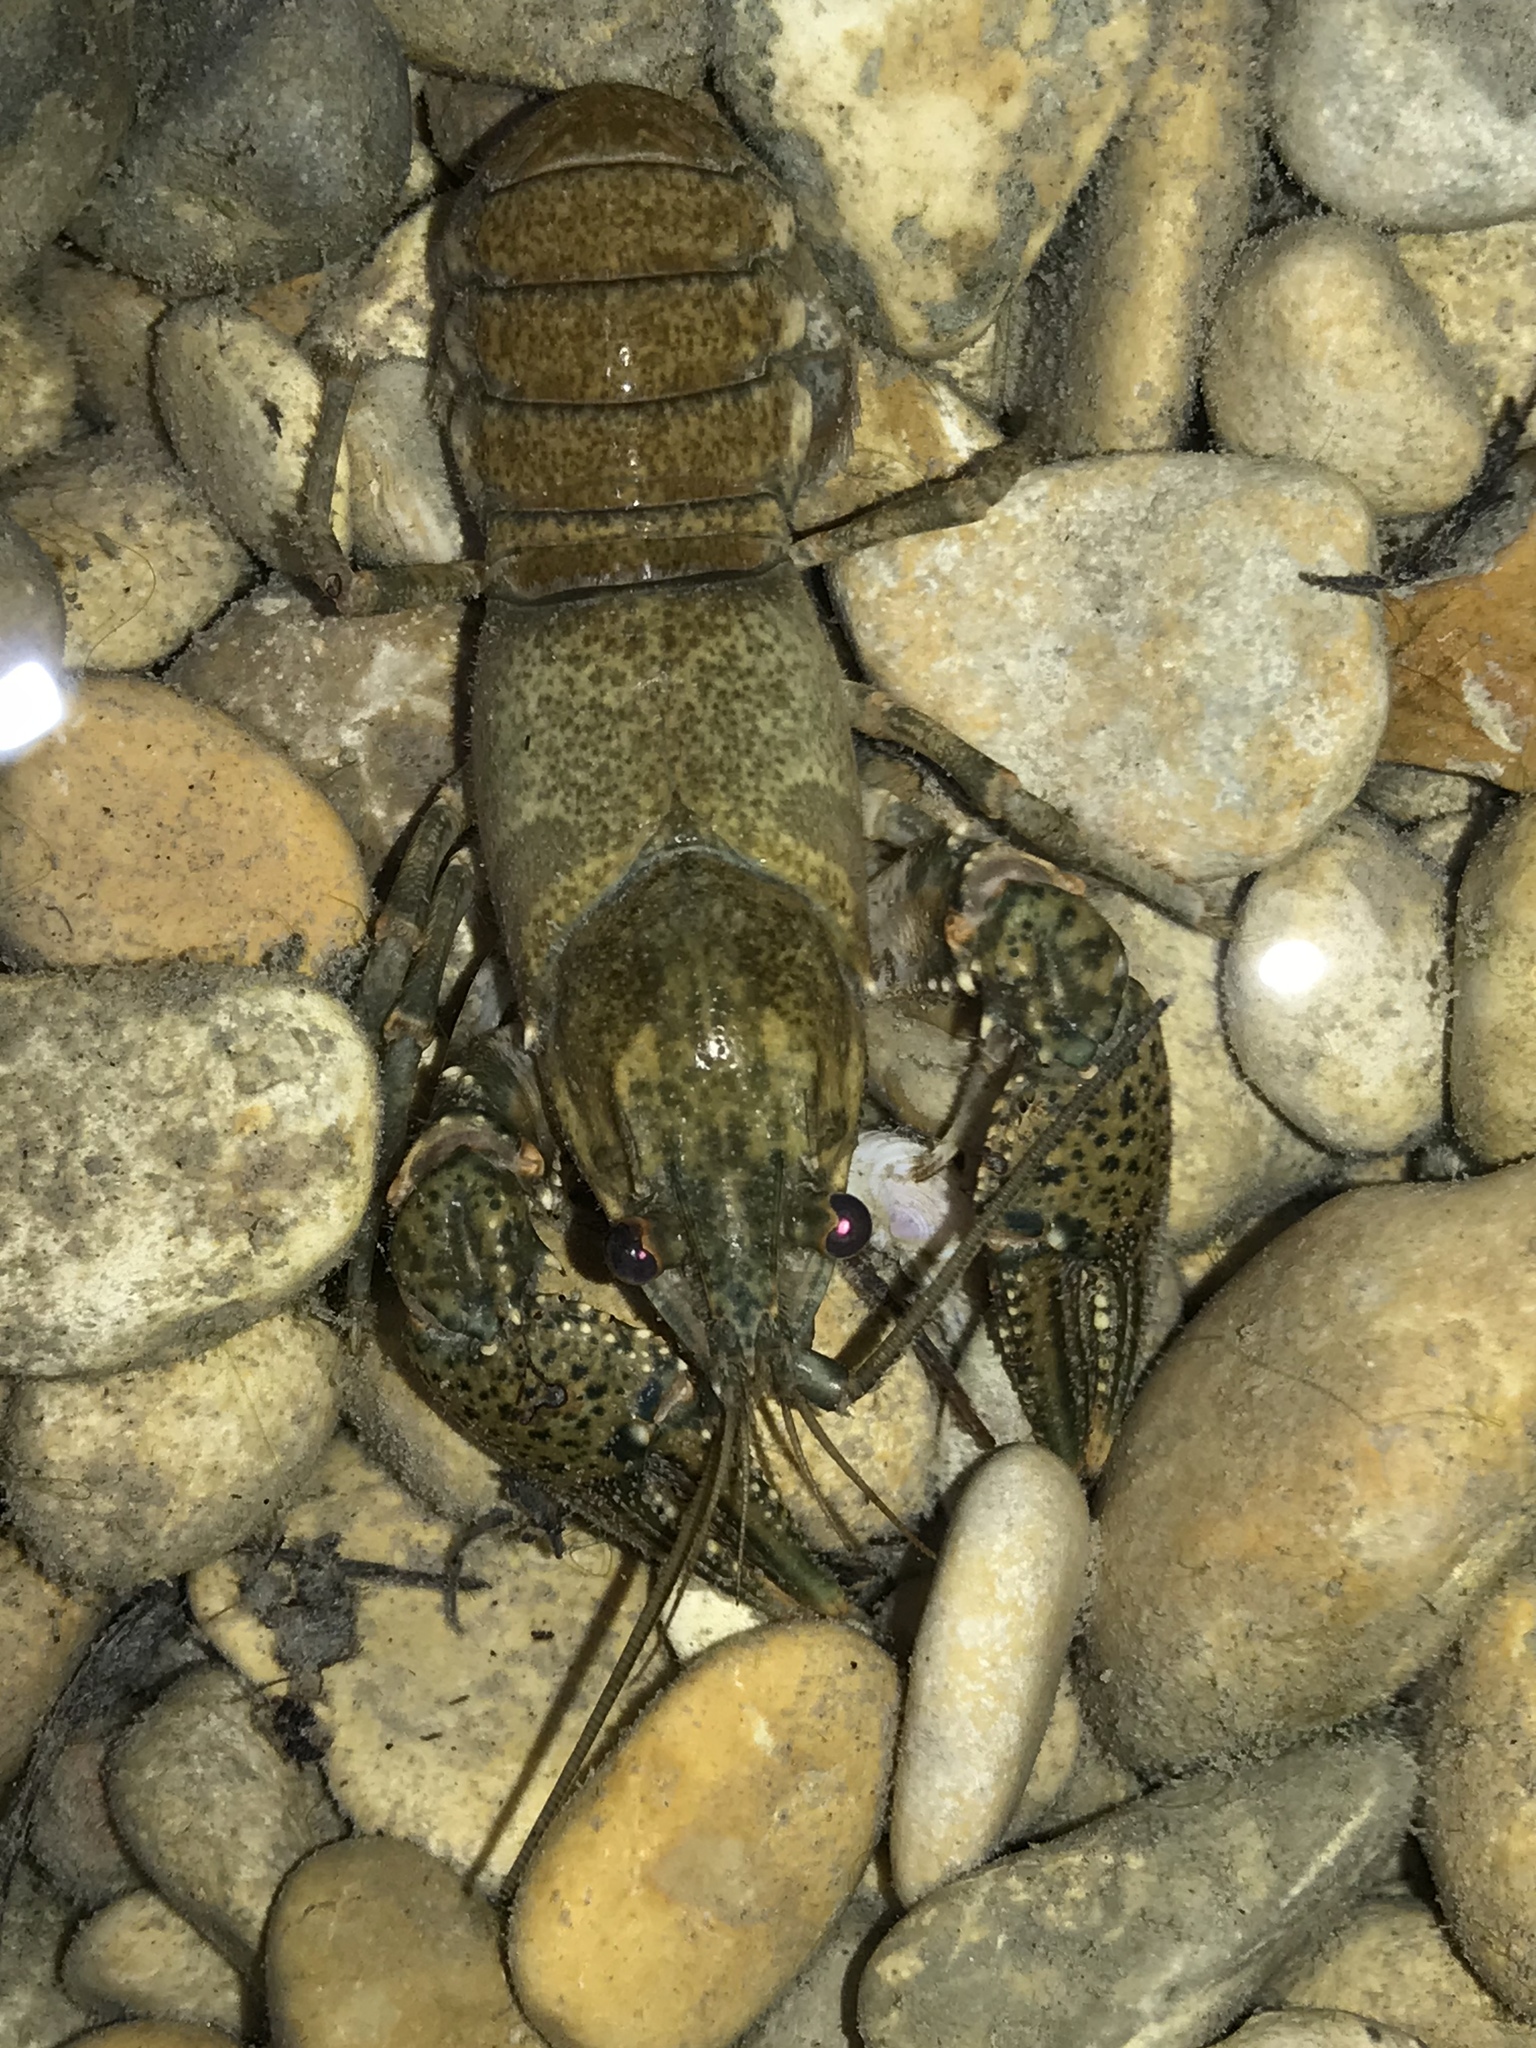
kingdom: Animalia
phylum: Arthropoda
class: Malacostraca
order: Decapoda
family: Cambaridae
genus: Faxonius
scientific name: Faxonius occidentalis
